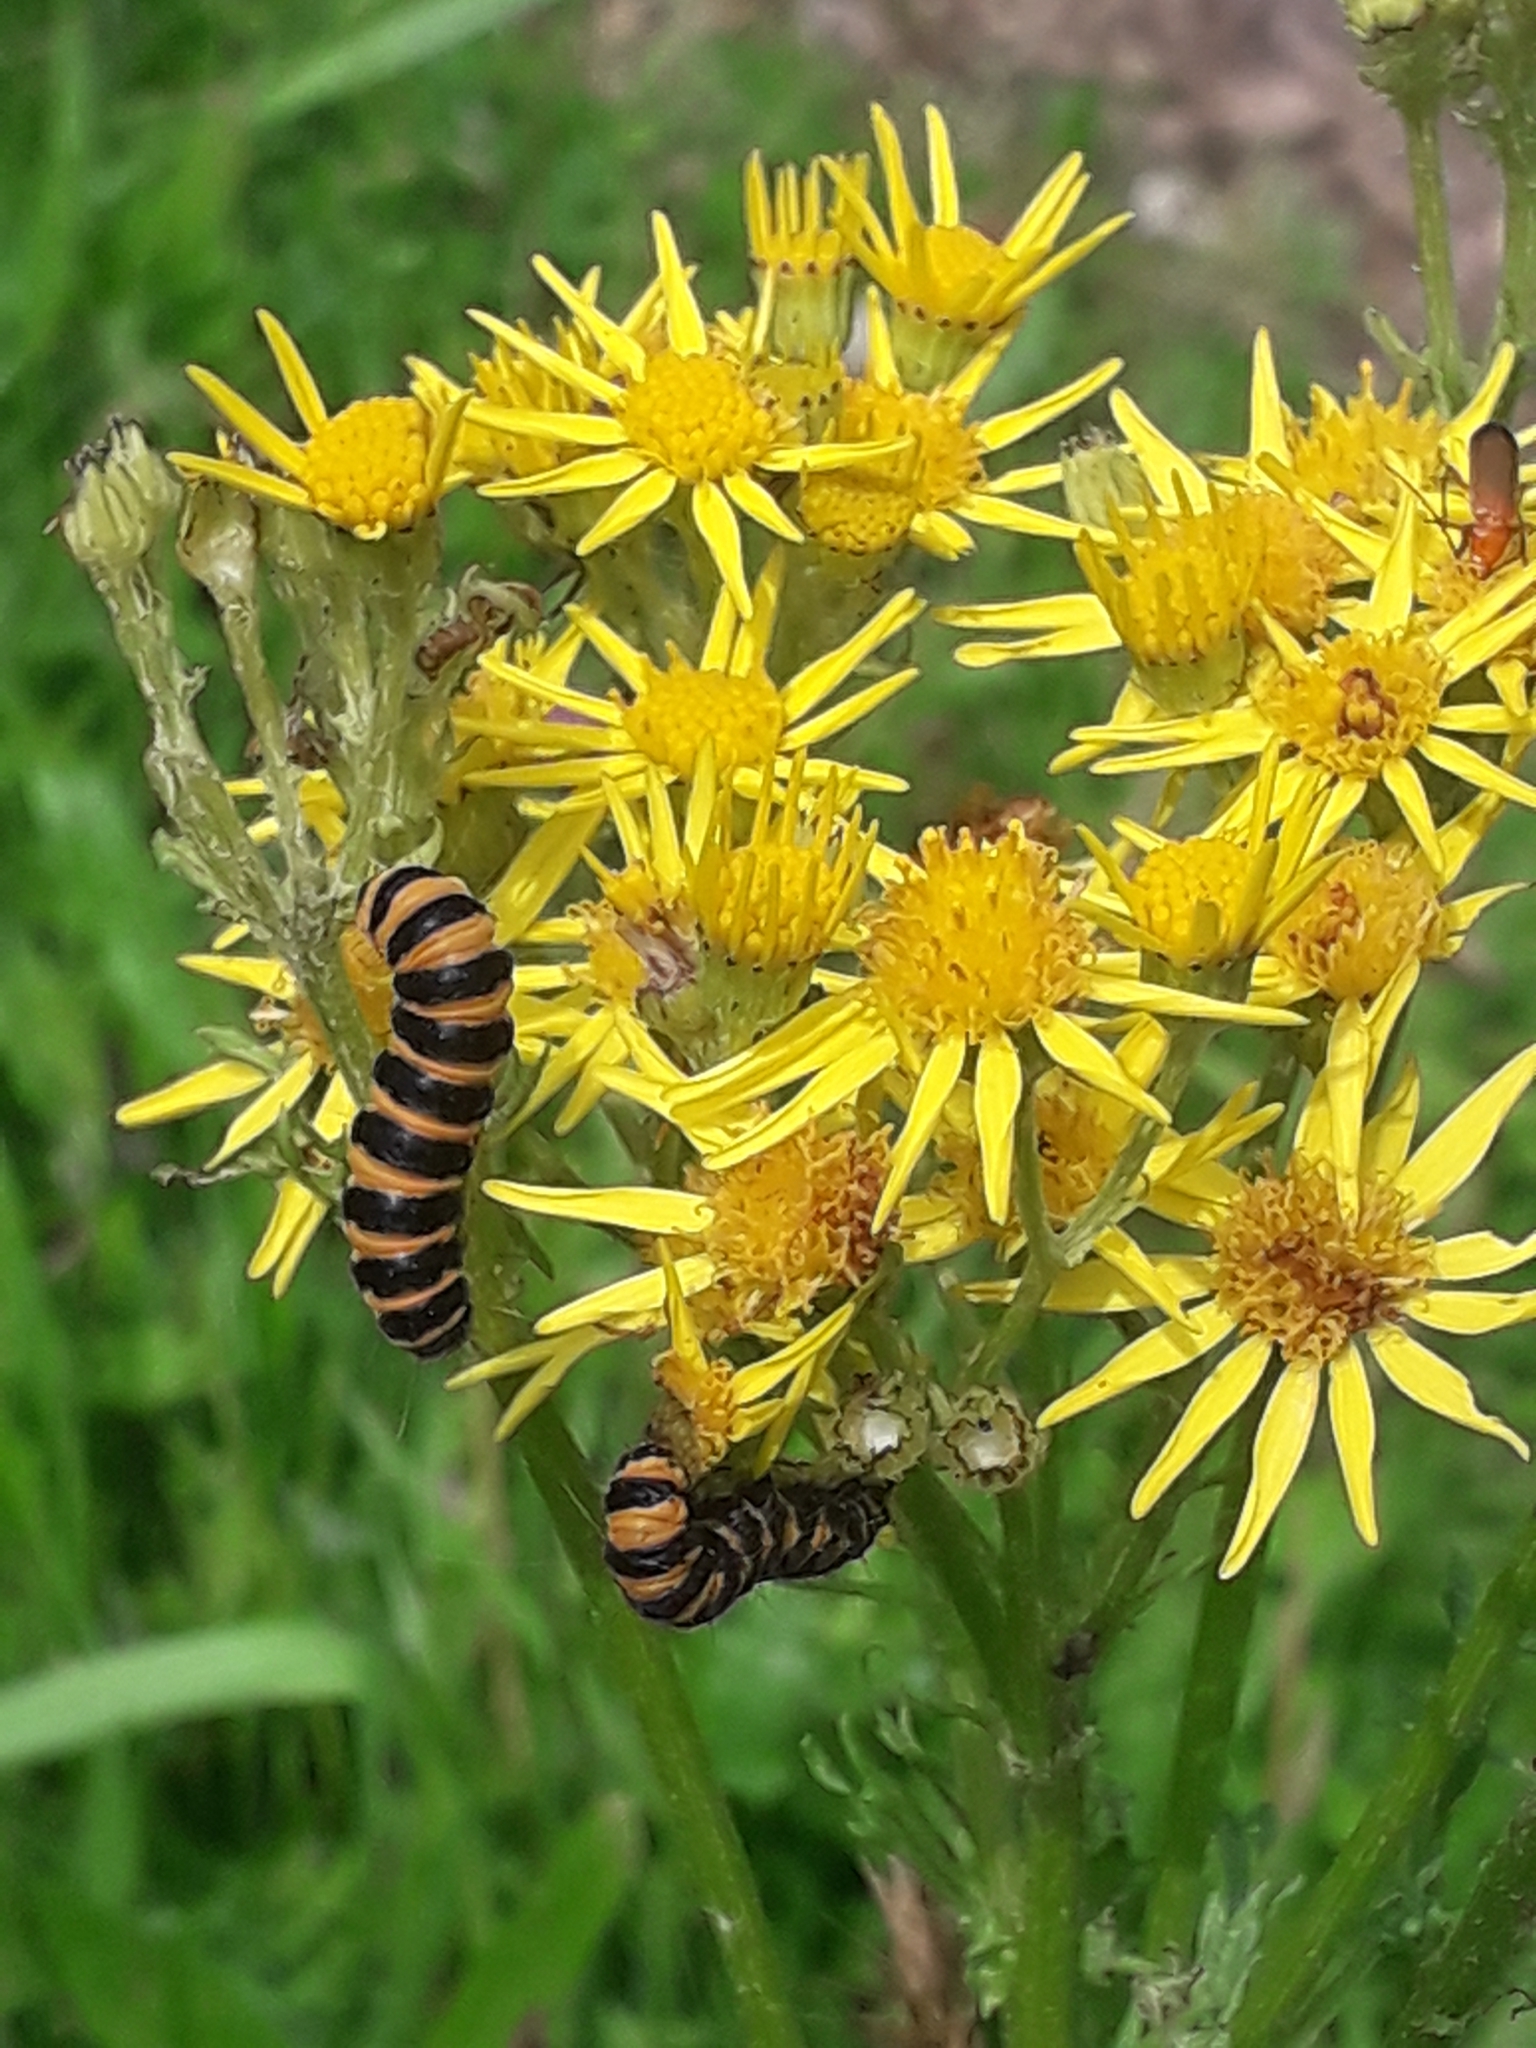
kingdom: Plantae
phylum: Tracheophyta
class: Magnoliopsida
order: Asterales
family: Asteraceae
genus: Jacobaea
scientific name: Jacobaea vulgaris
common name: Stinking willie
